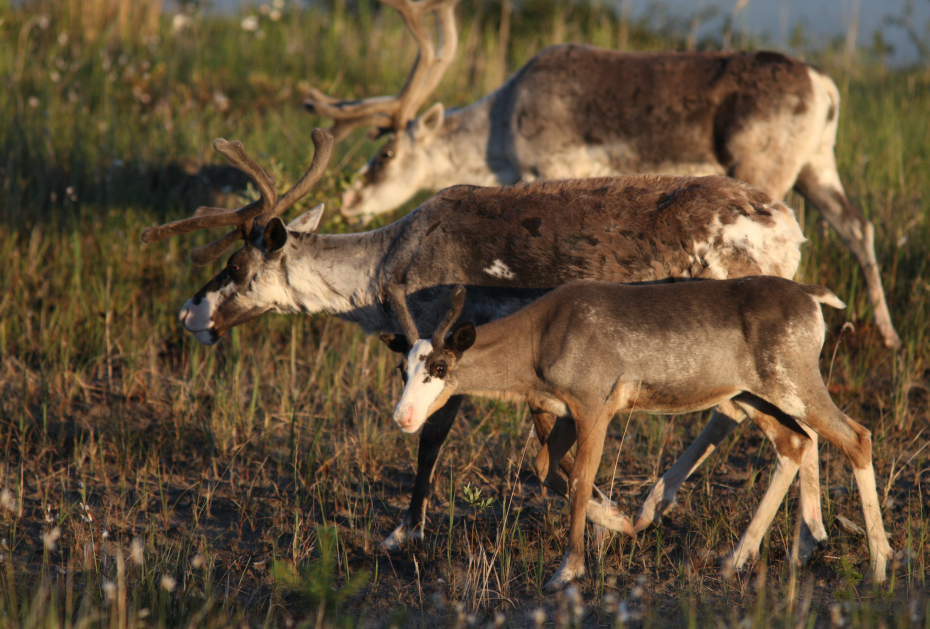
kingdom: Animalia
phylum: Chordata
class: Mammalia
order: Artiodactyla
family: Cervidae
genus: Rangifer
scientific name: Rangifer tarandus
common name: Reindeer
